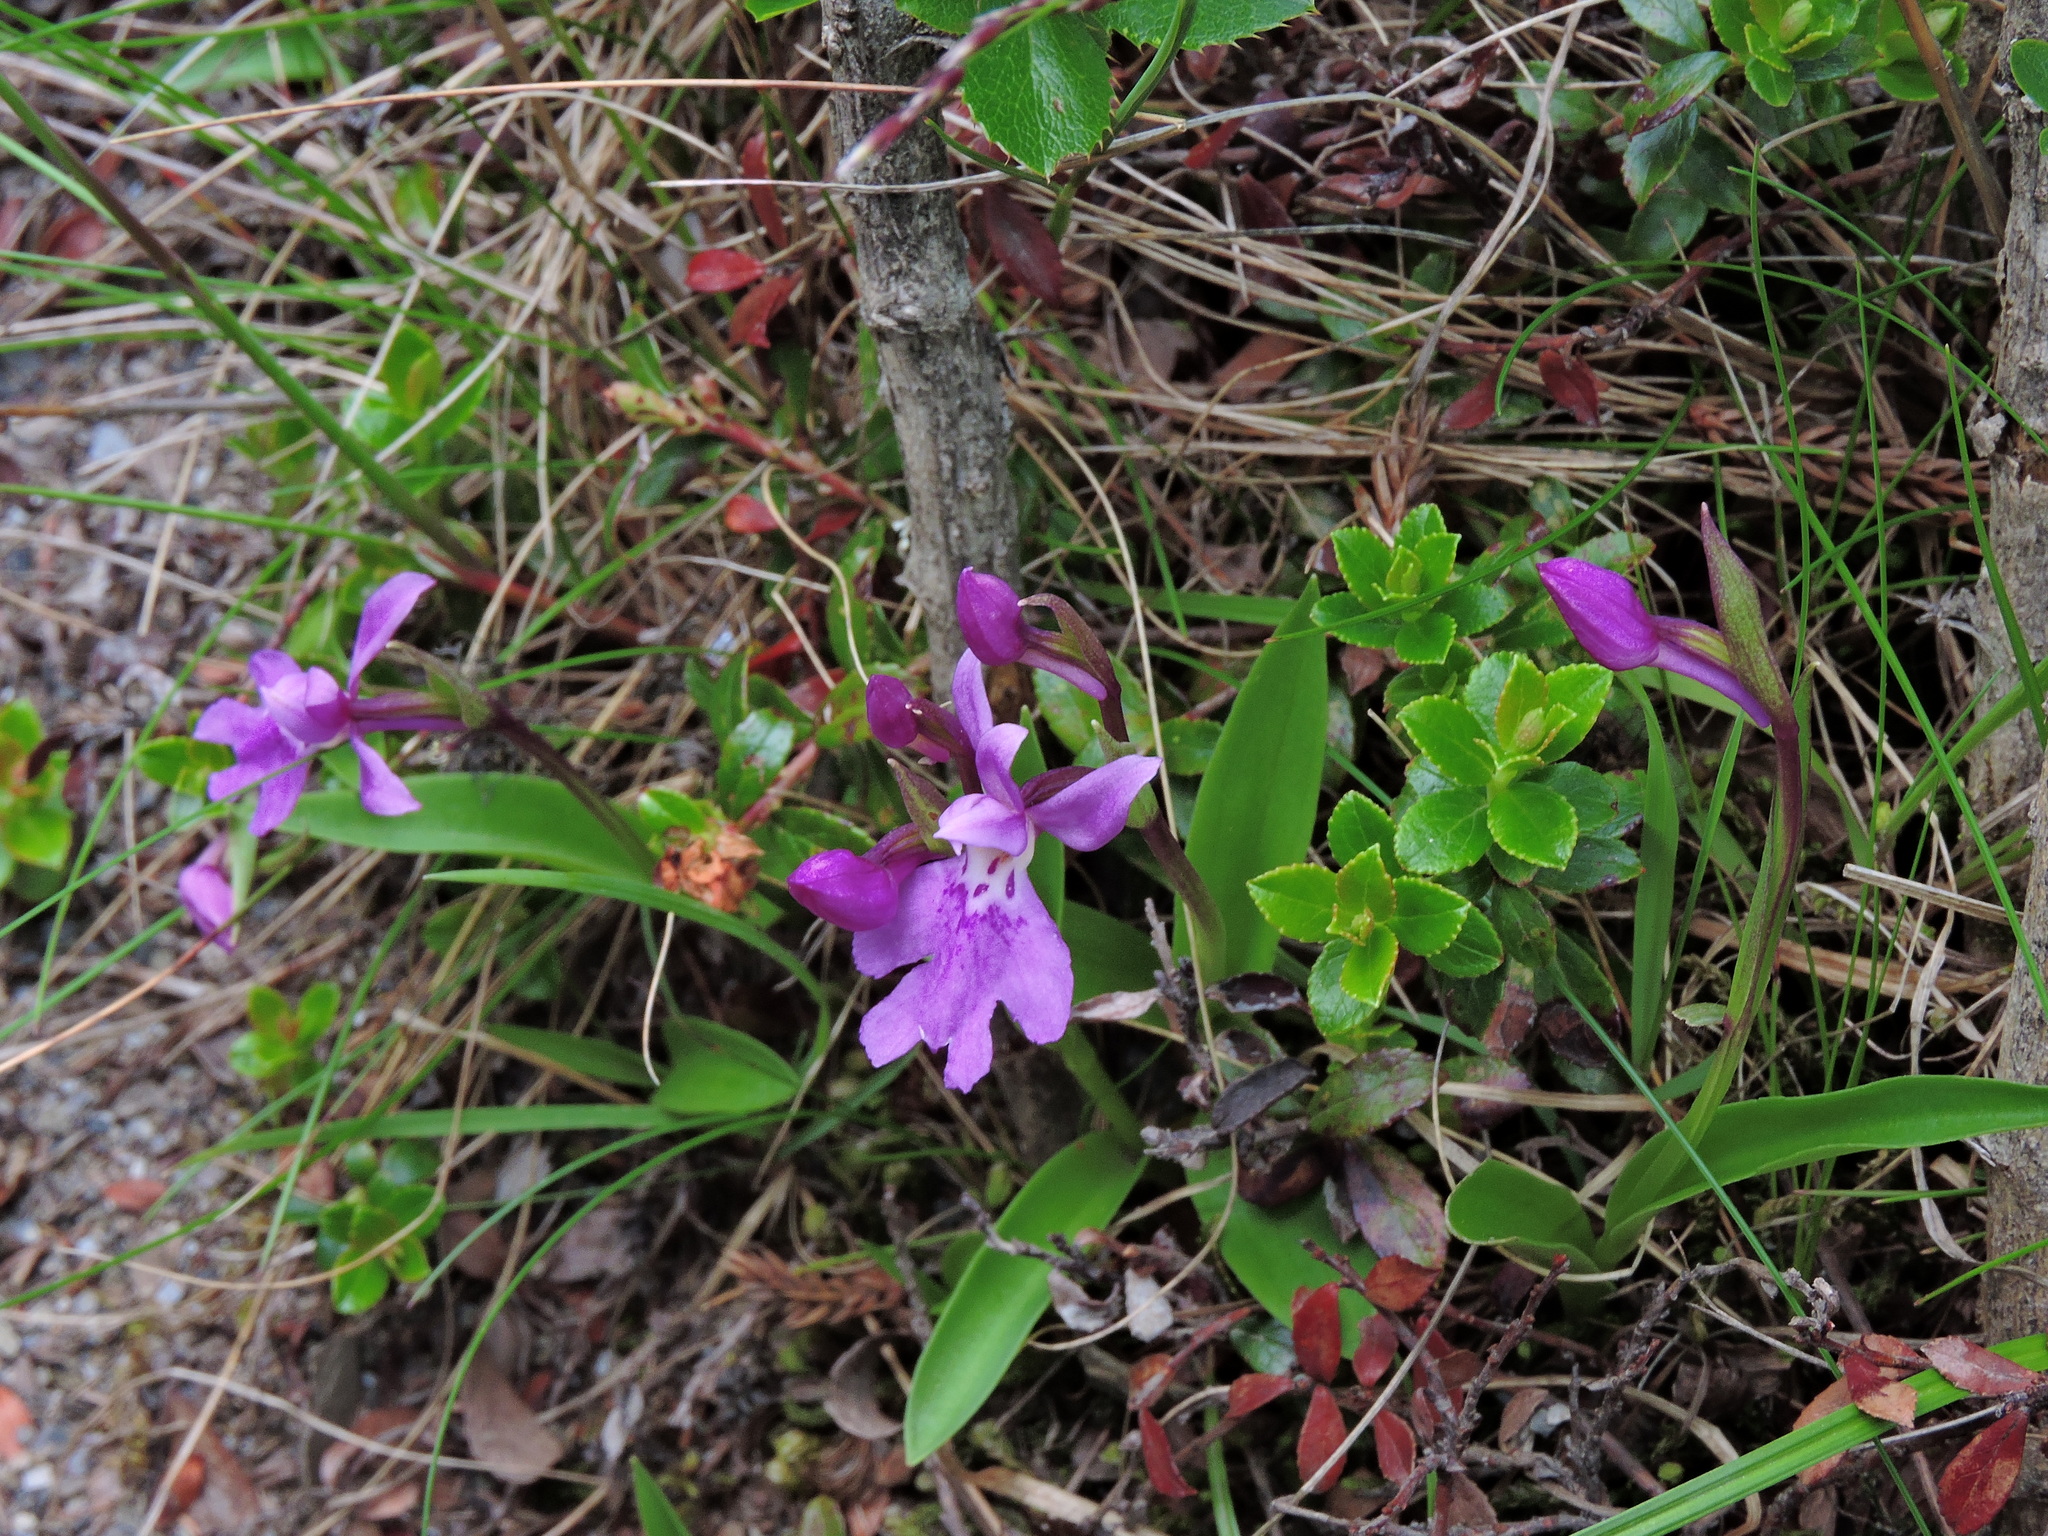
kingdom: Plantae
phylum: Tracheophyta
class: Liliopsida
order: Asparagales
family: Orchidaceae
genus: Hemipilia
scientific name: Hemipilia kiraishiensis
